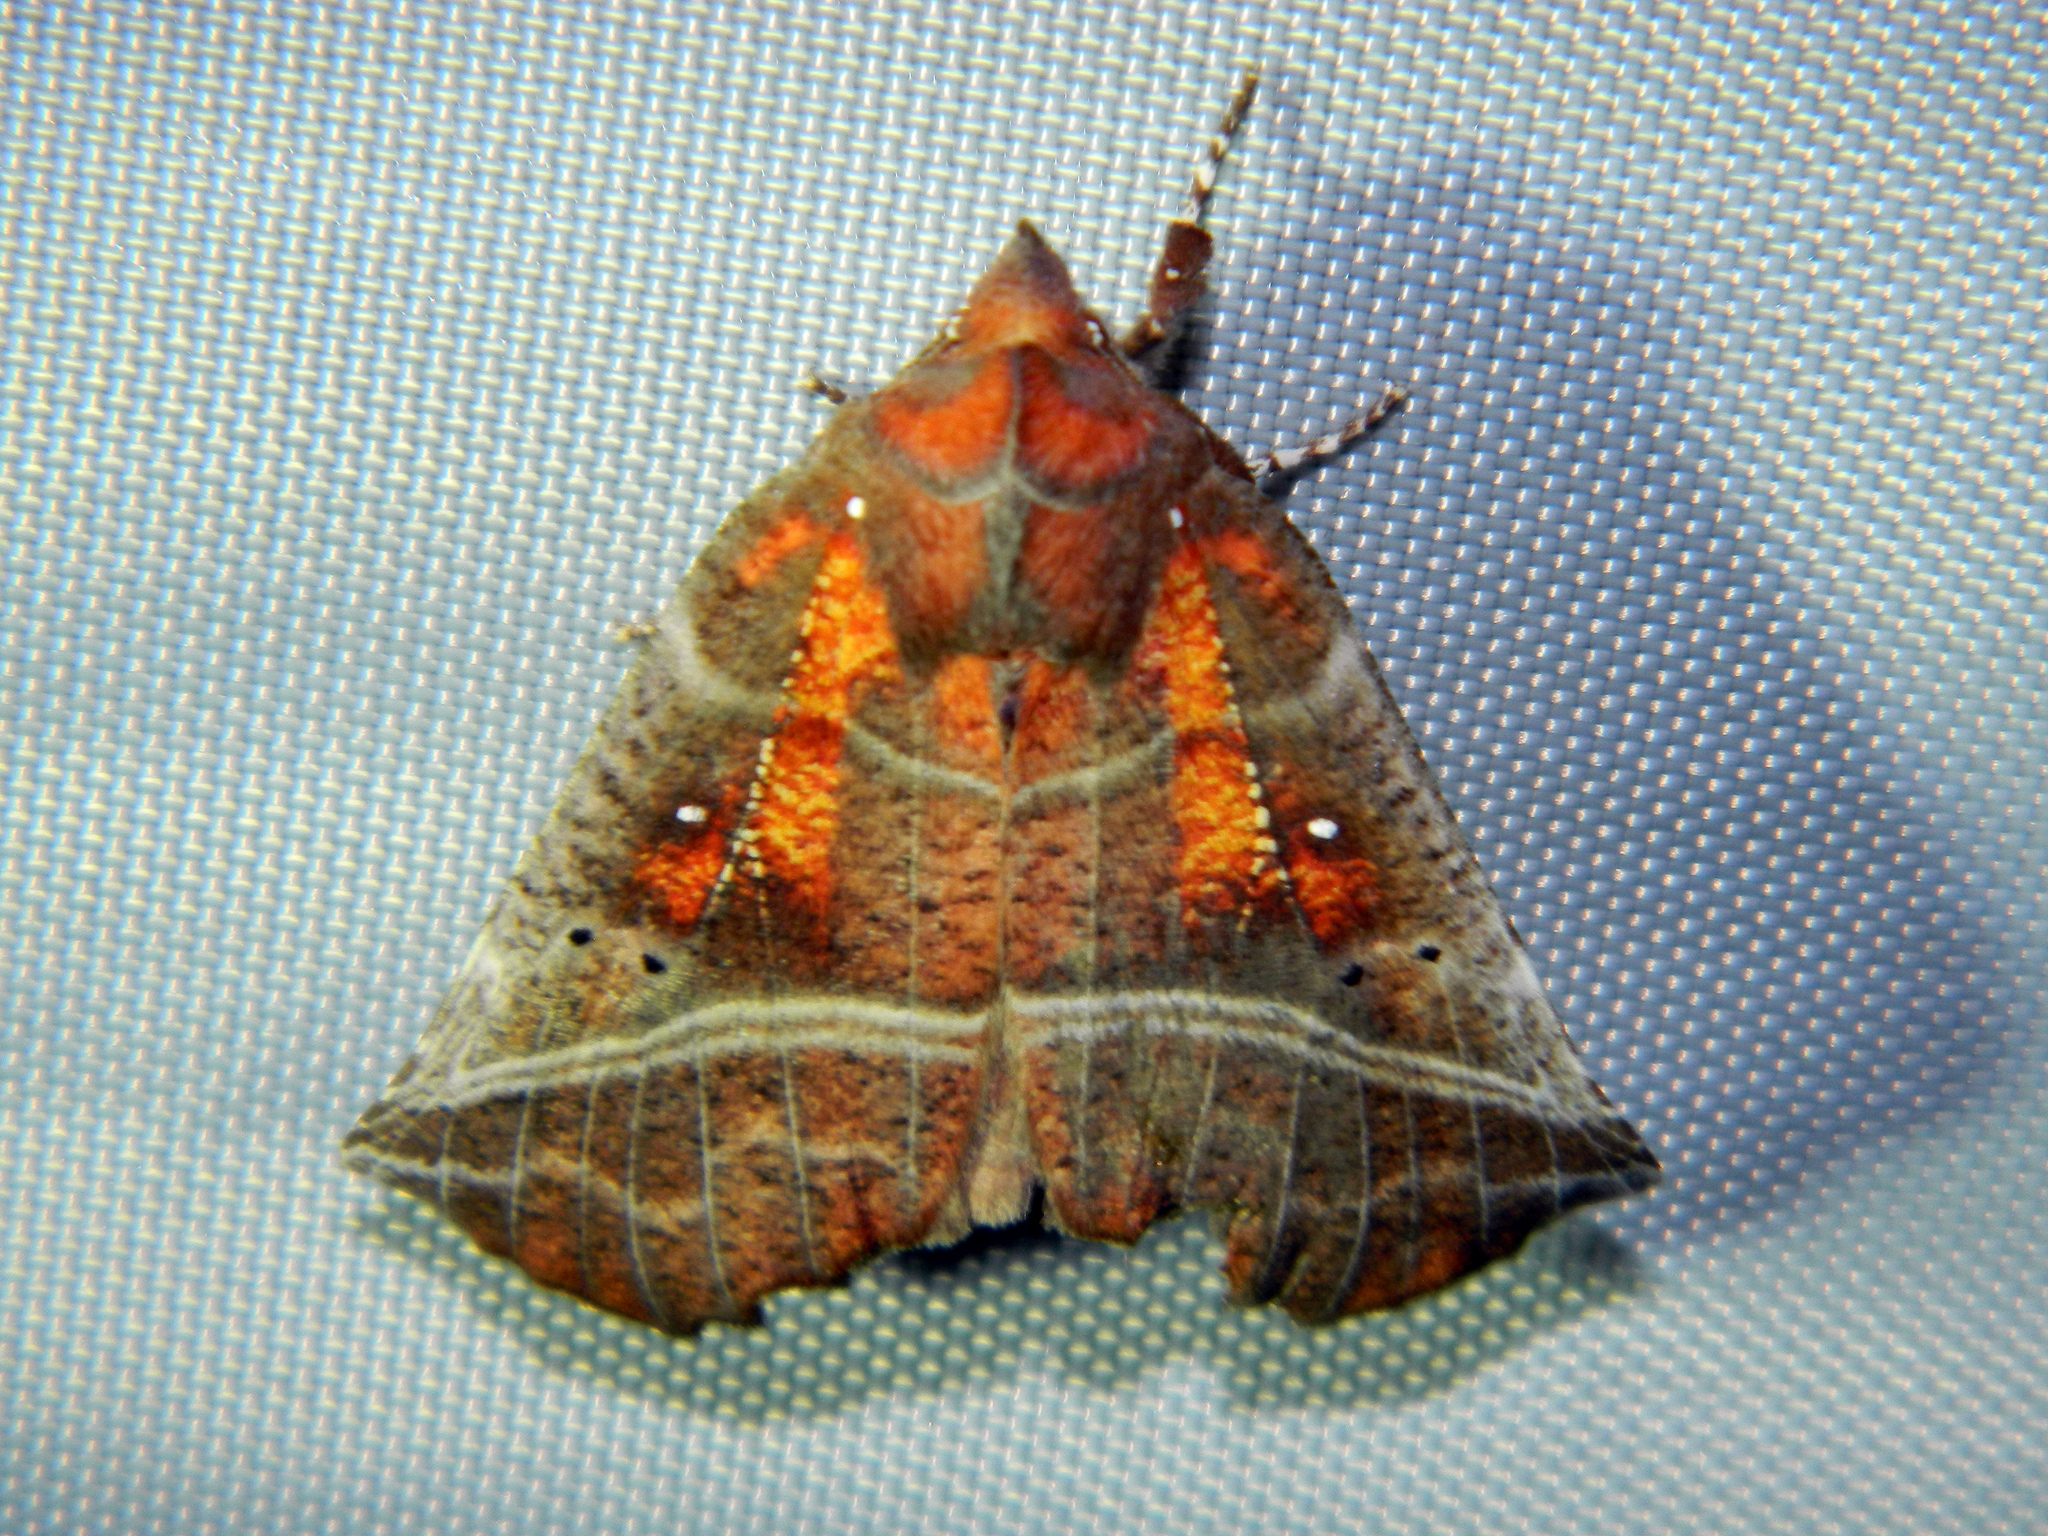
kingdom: Animalia
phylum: Arthropoda
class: Insecta
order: Lepidoptera
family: Erebidae
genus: Scoliopteryx
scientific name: Scoliopteryx libatrix
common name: Herald
